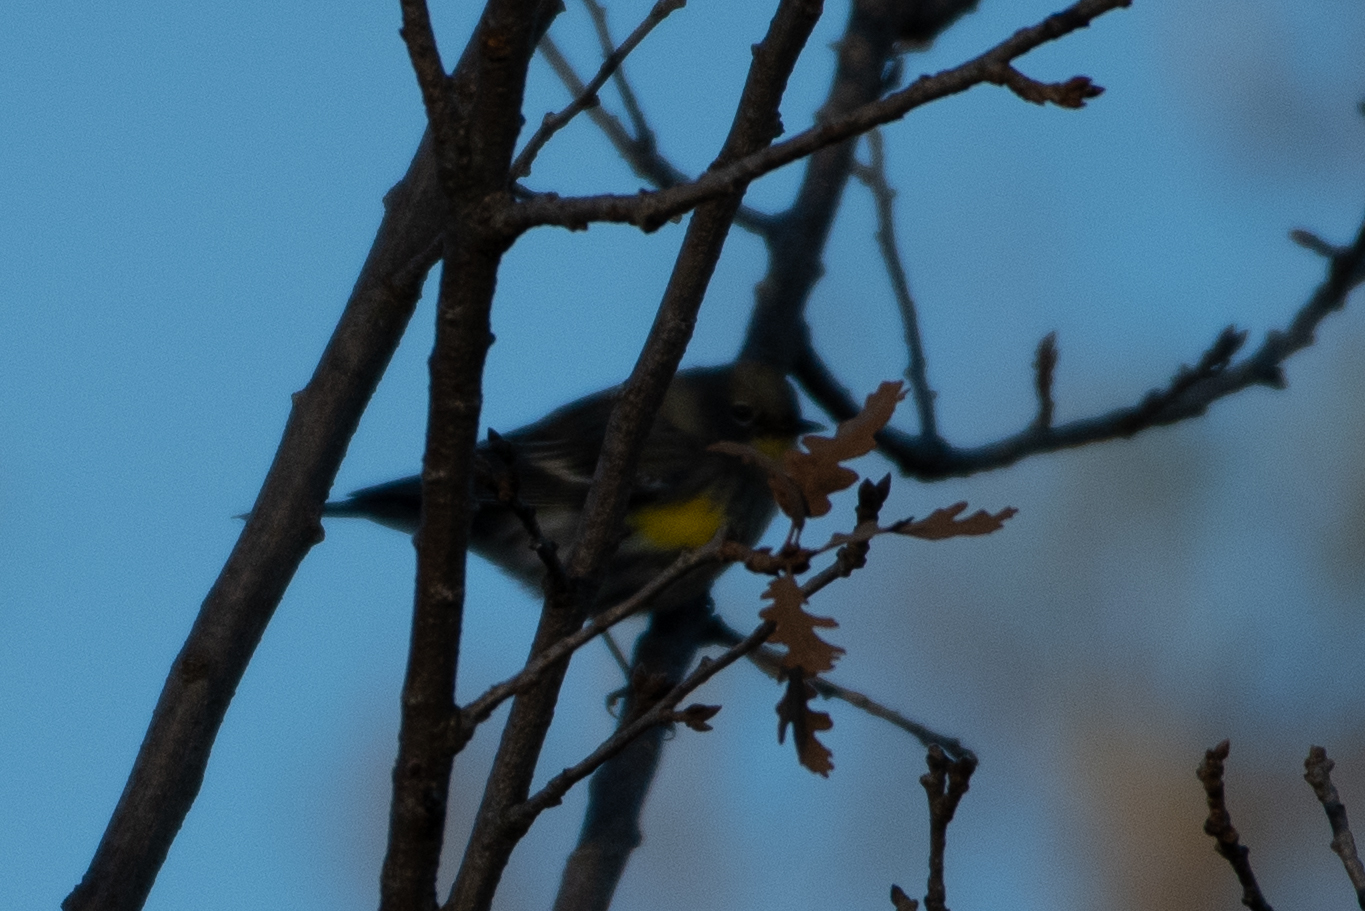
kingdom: Animalia
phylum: Chordata
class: Aves
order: Passeriformes
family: Parulidae
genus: Setophaga
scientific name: Setophaga coronata
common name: Myrtle warbler
